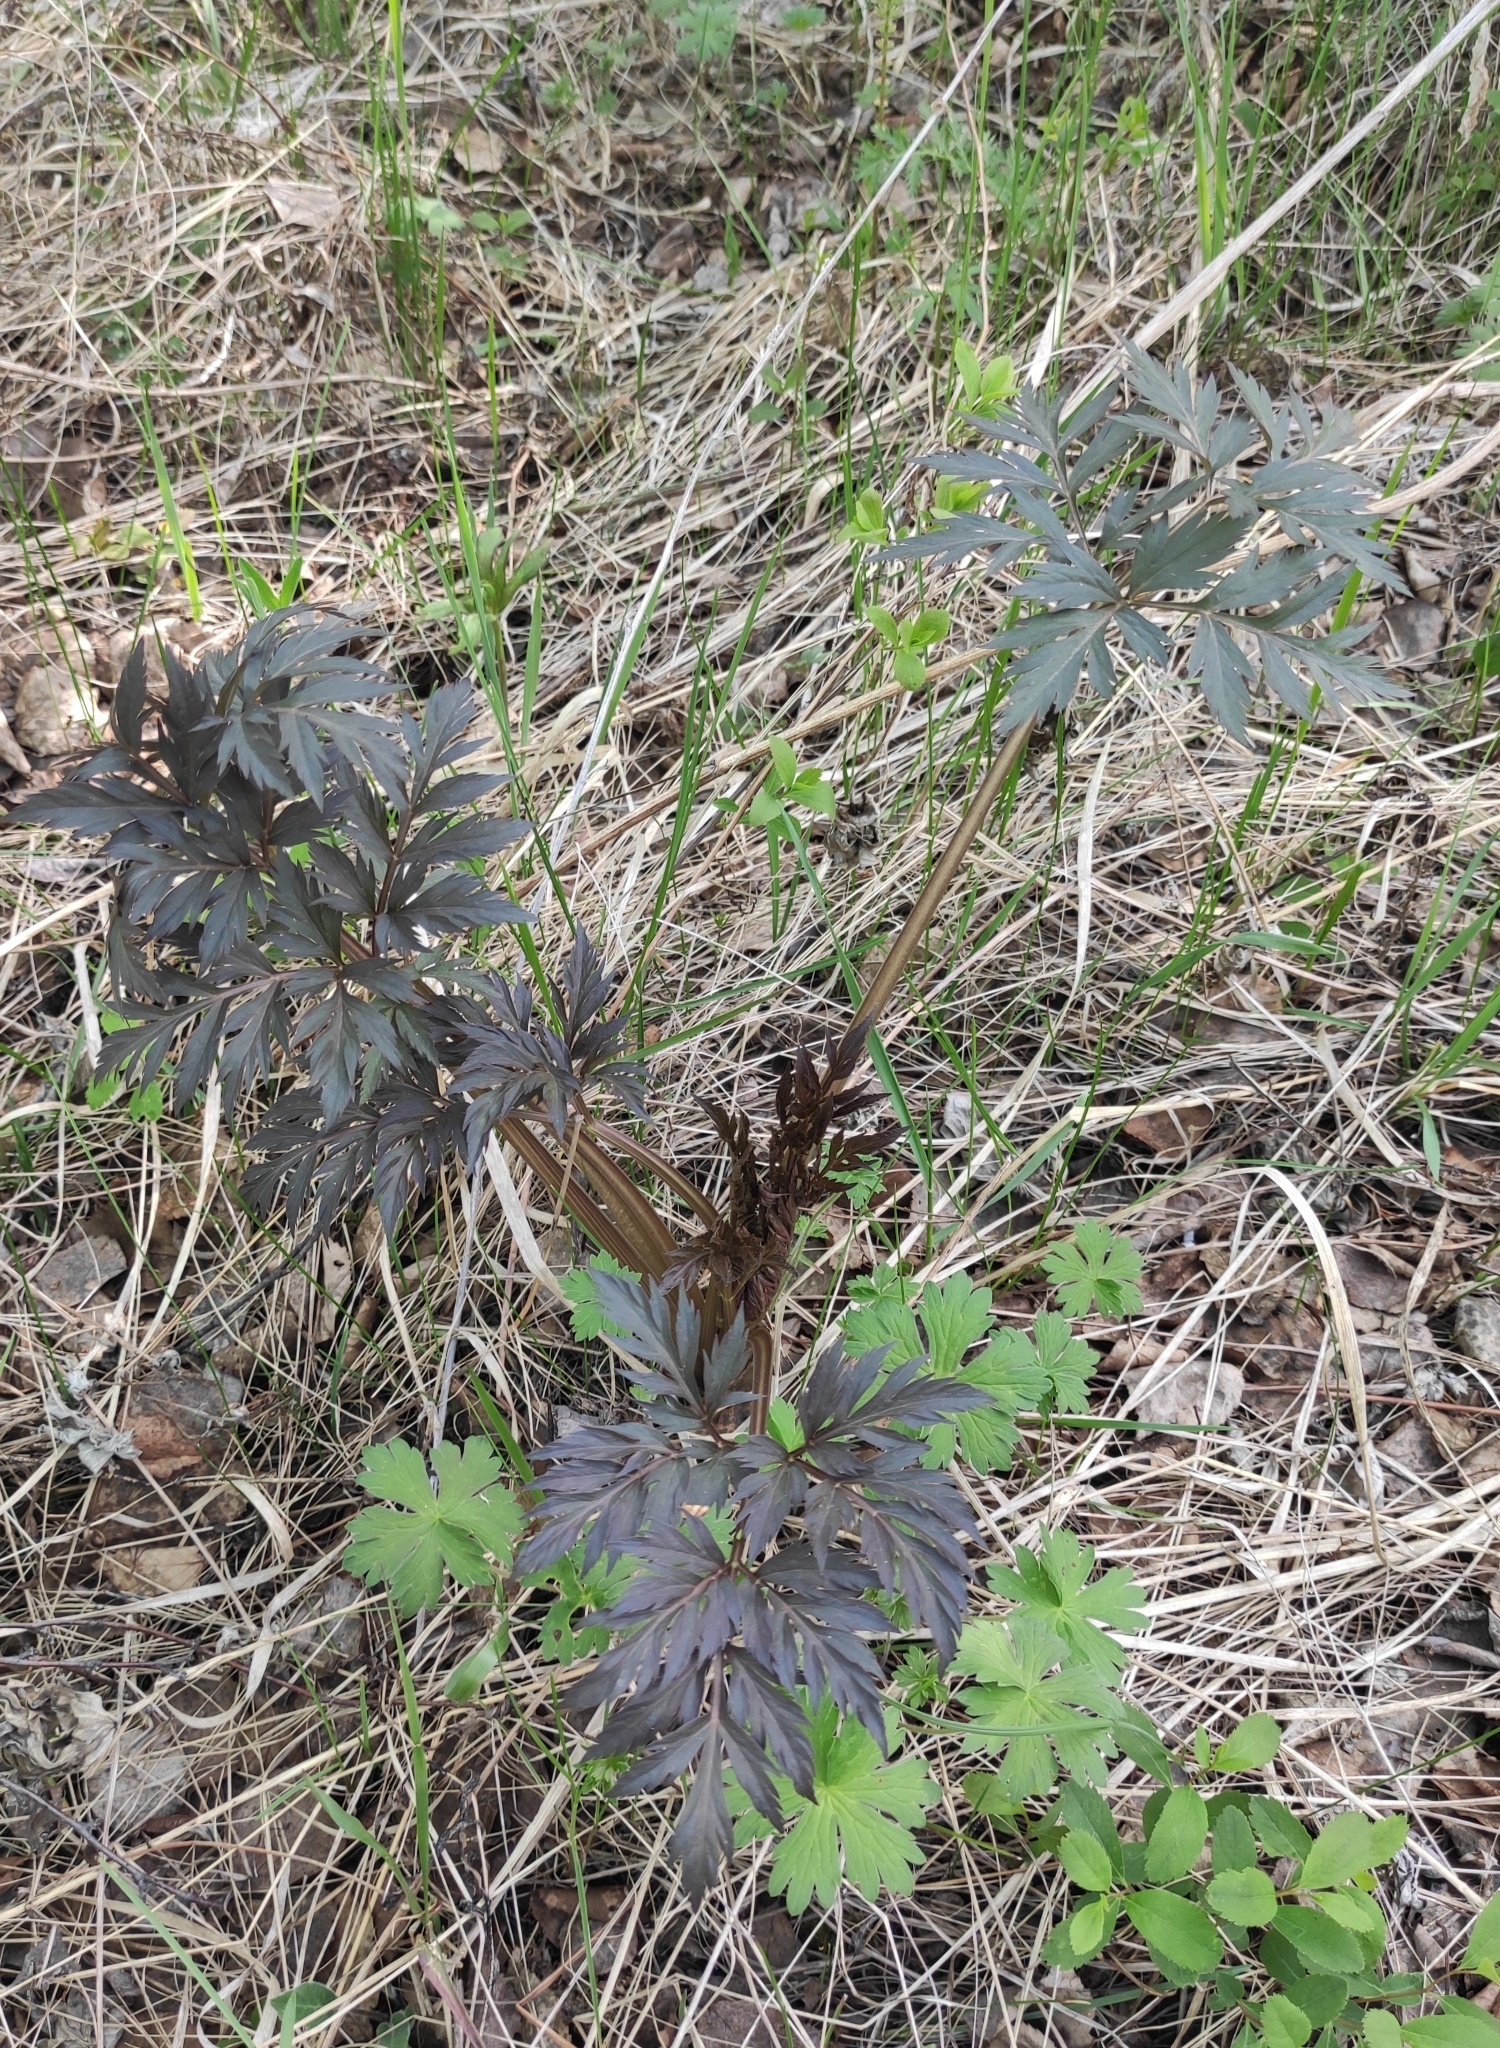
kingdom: Plantae
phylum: Tracheophyta
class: Magnoliopsida
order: Apiales
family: Apiaceae
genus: Pleurospermum
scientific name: Pleurospermum uralense
